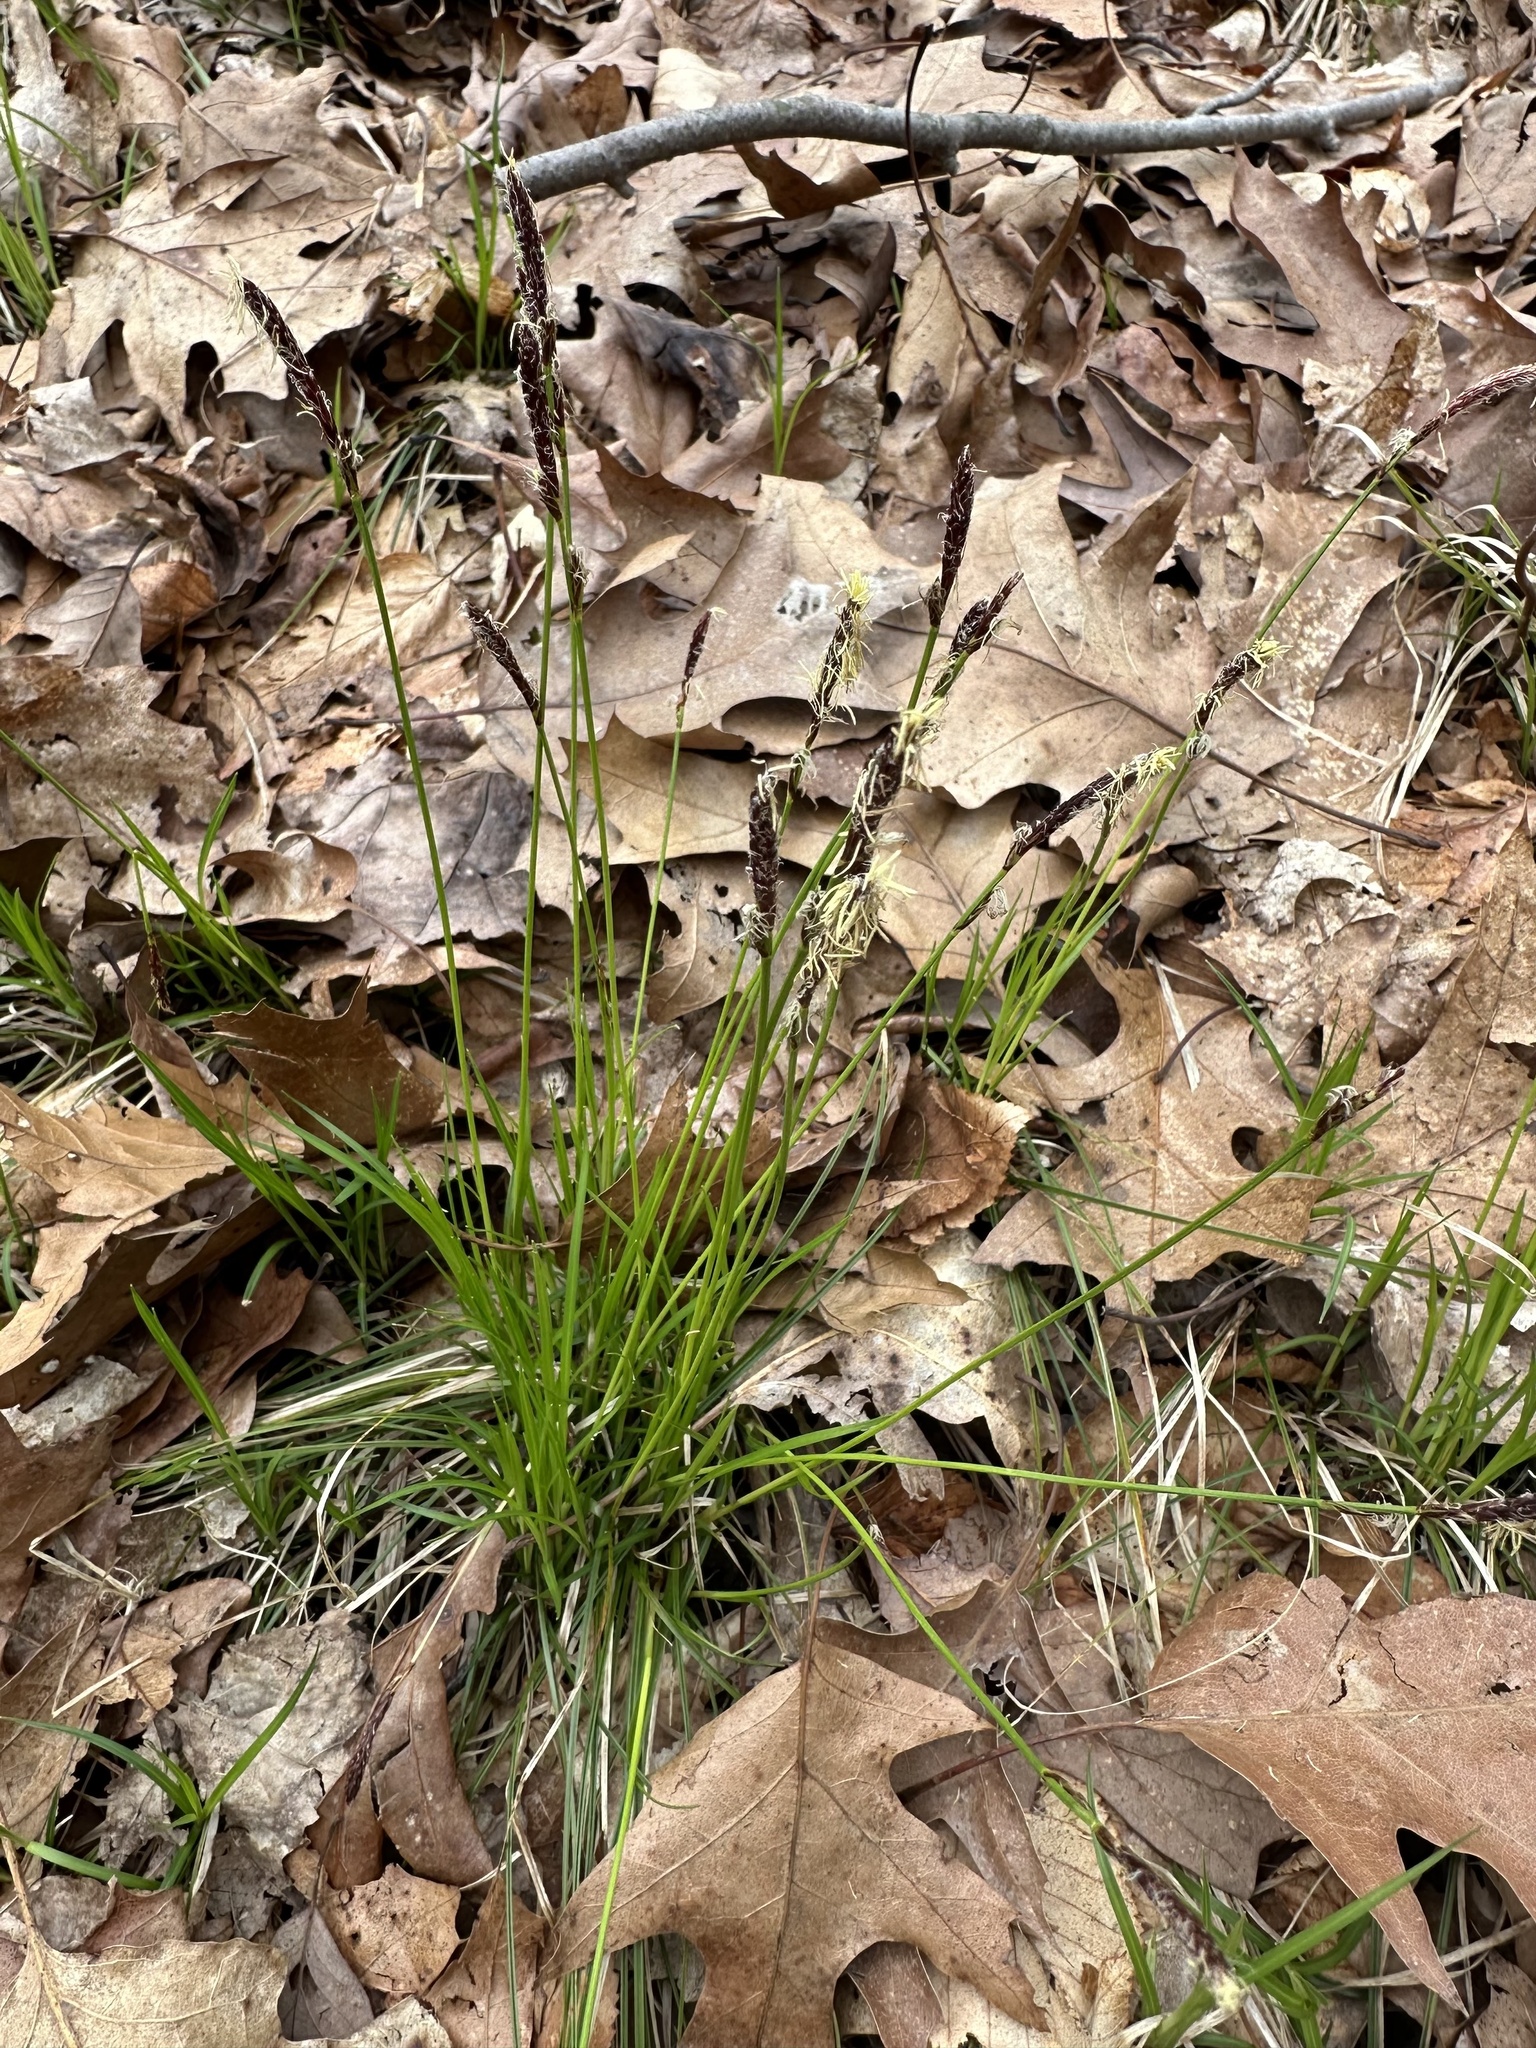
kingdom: Plantae
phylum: Tracheophyta
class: Liliopsida
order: Poales
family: Cyperaceae
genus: Carex
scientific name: Carex pensylvanica
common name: Common oak sedge
